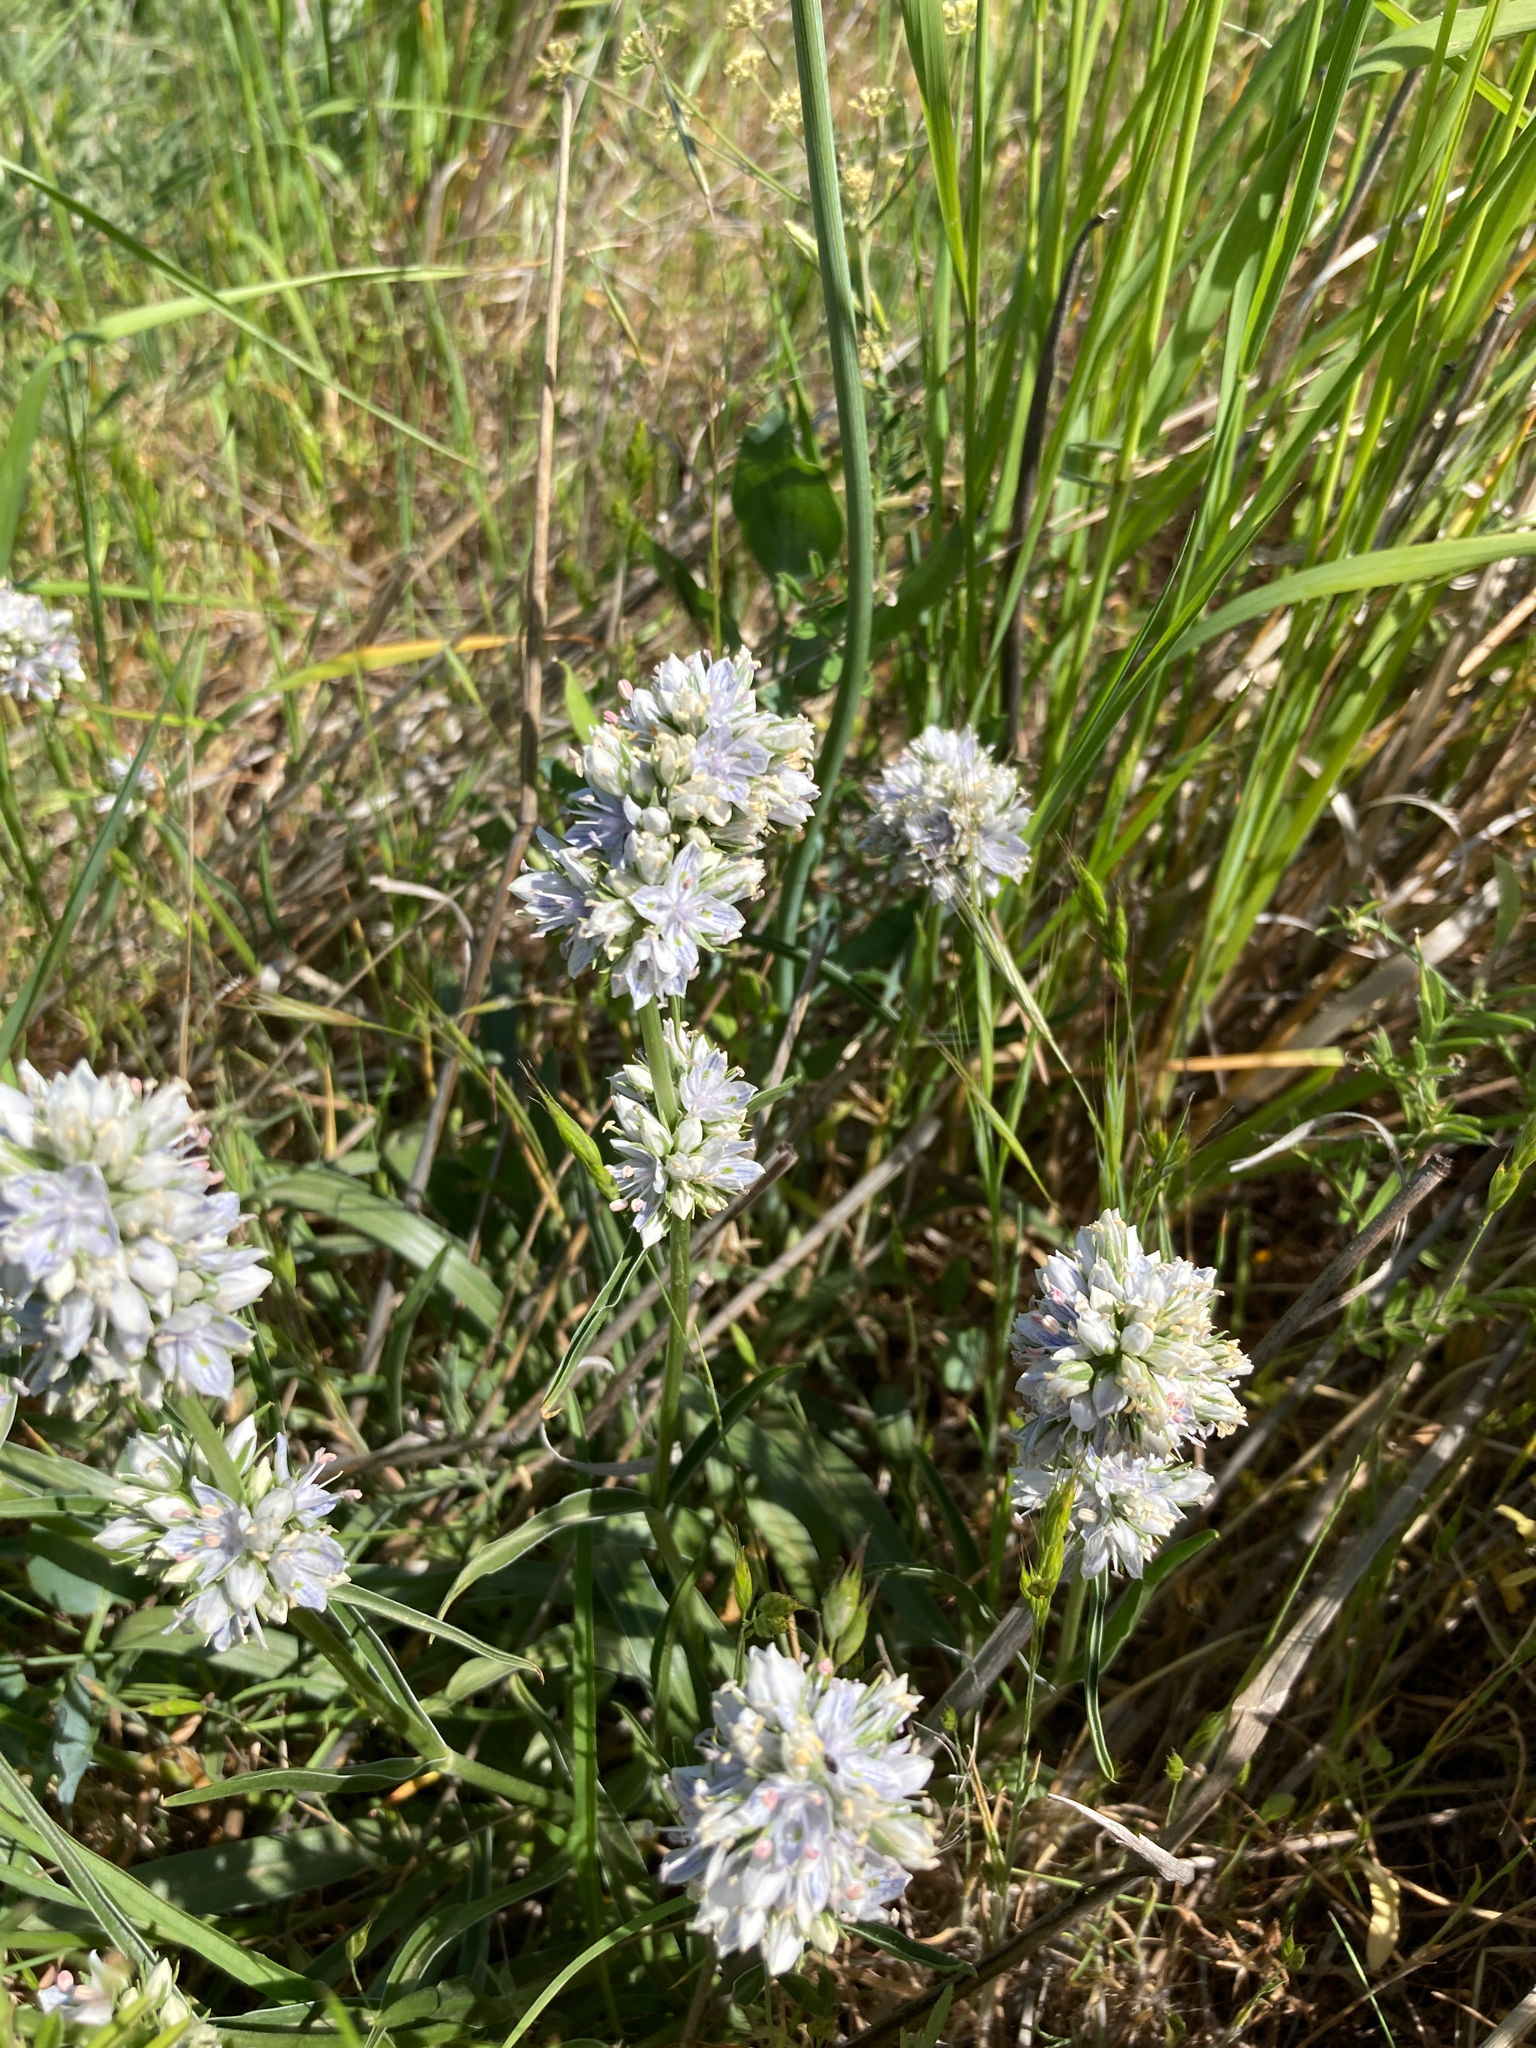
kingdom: Plantae
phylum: Tracheophyta
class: Magnoliopsida
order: Gentianales
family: Gentianaceae
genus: Frasera
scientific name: Frasera albicaulis
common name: Cusick's frasera
